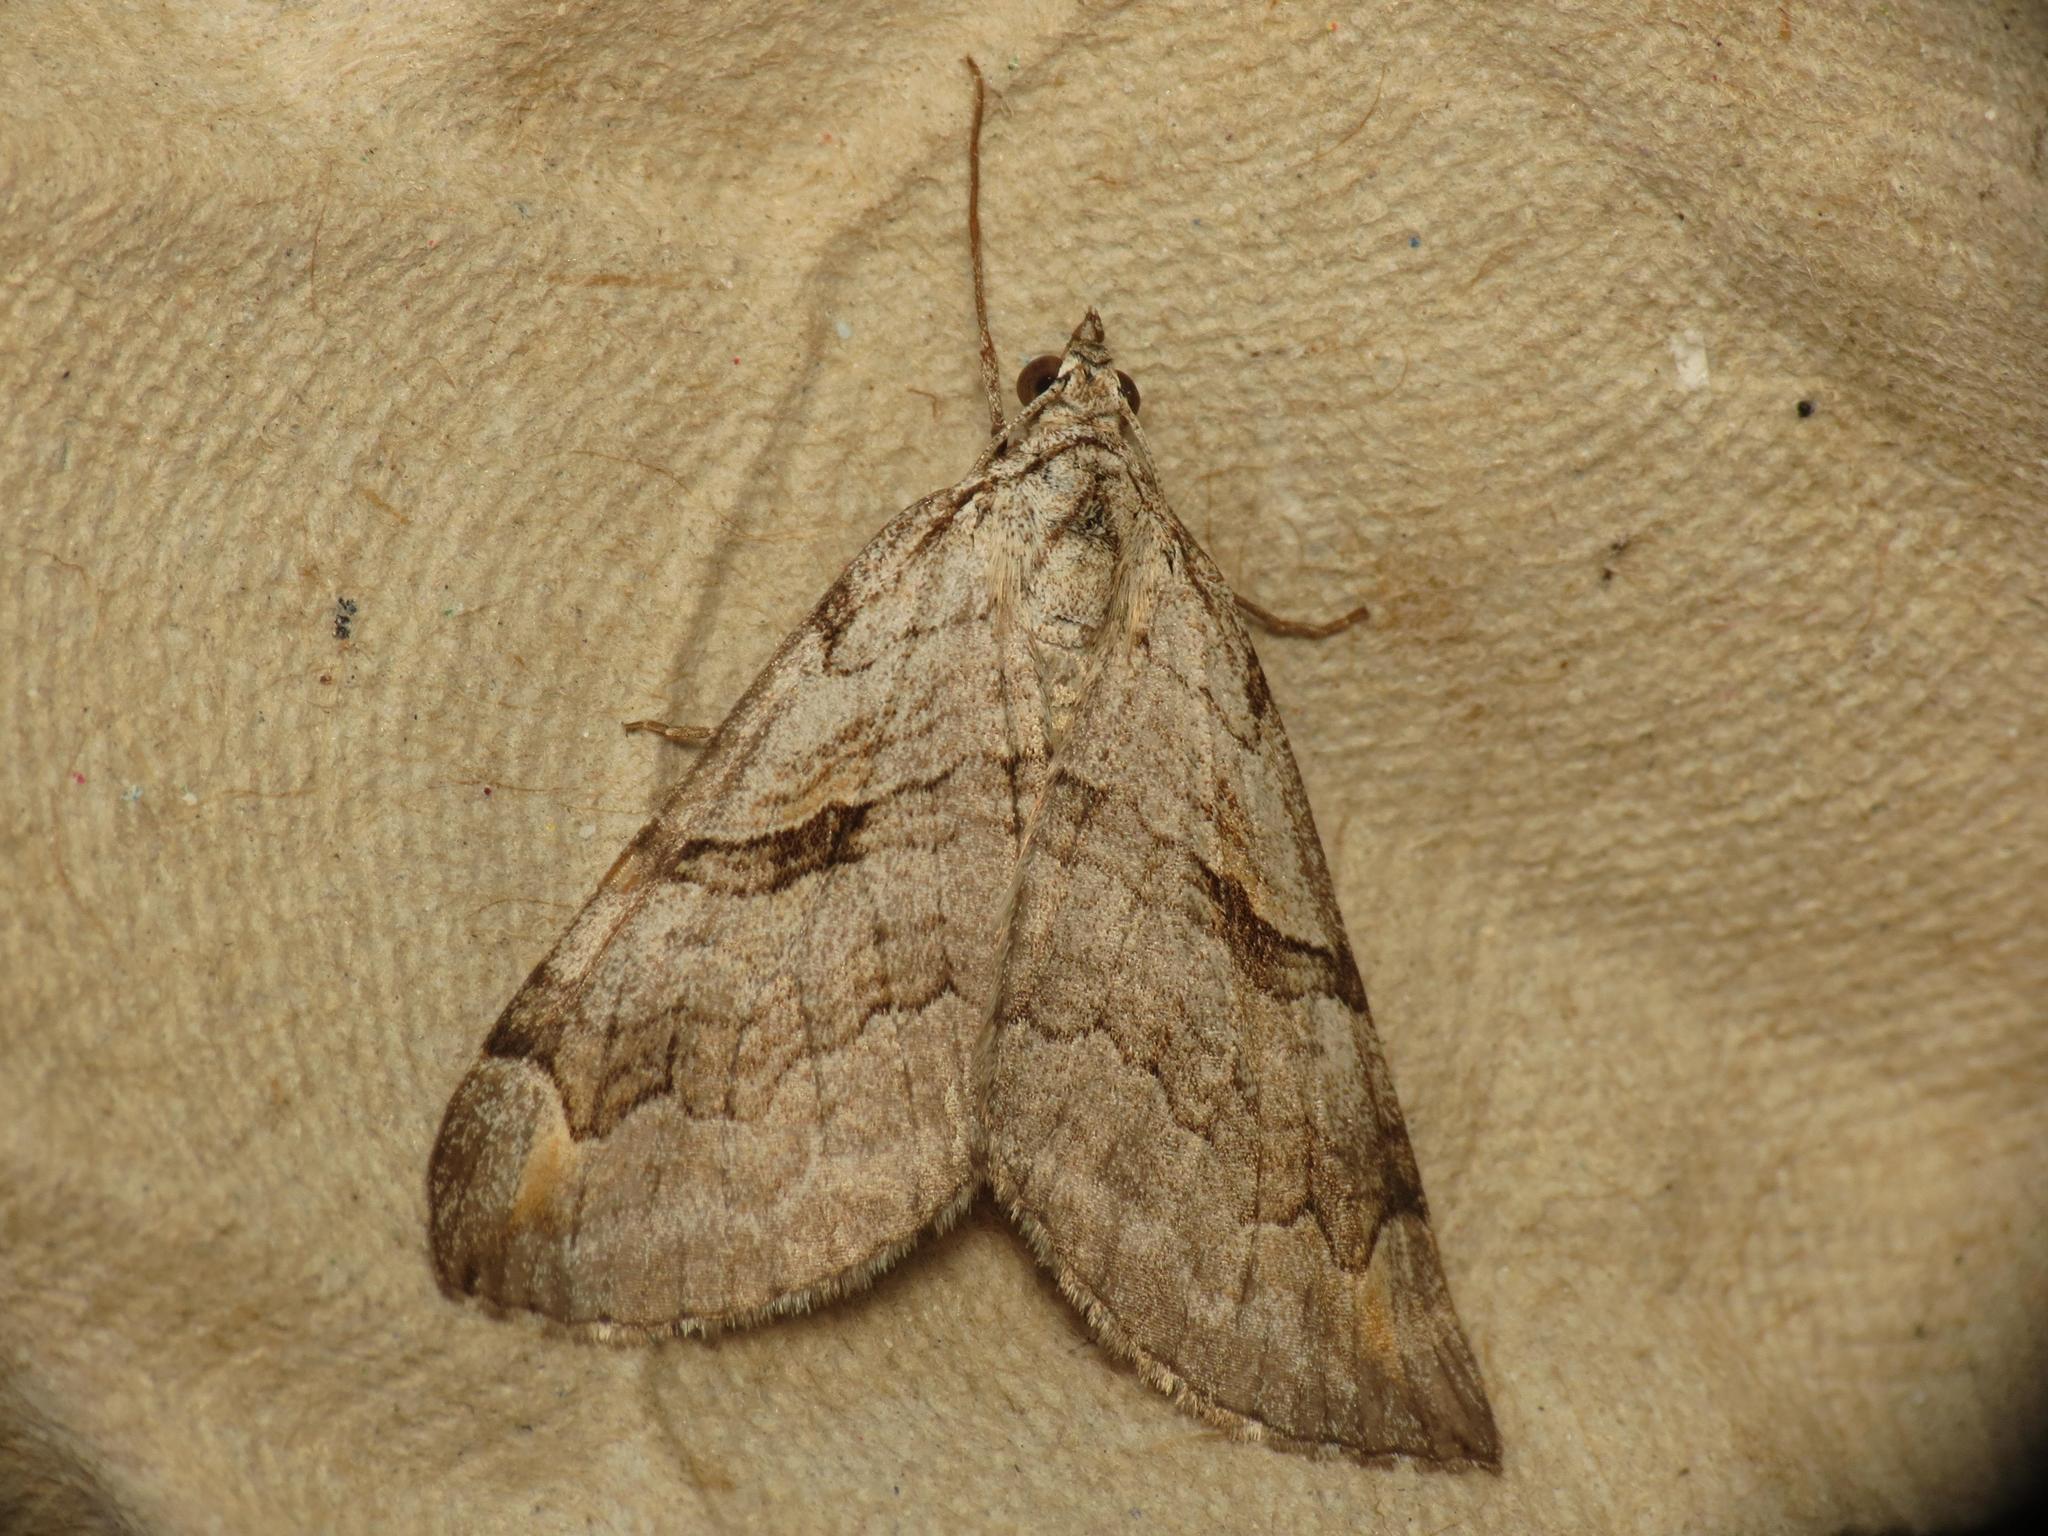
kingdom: Animalia
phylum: Arthropoda
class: Insecta
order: Lepidoptera
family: Geometridae
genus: Aplocera
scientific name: Aplocera efformata
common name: Lesser treble-bar
